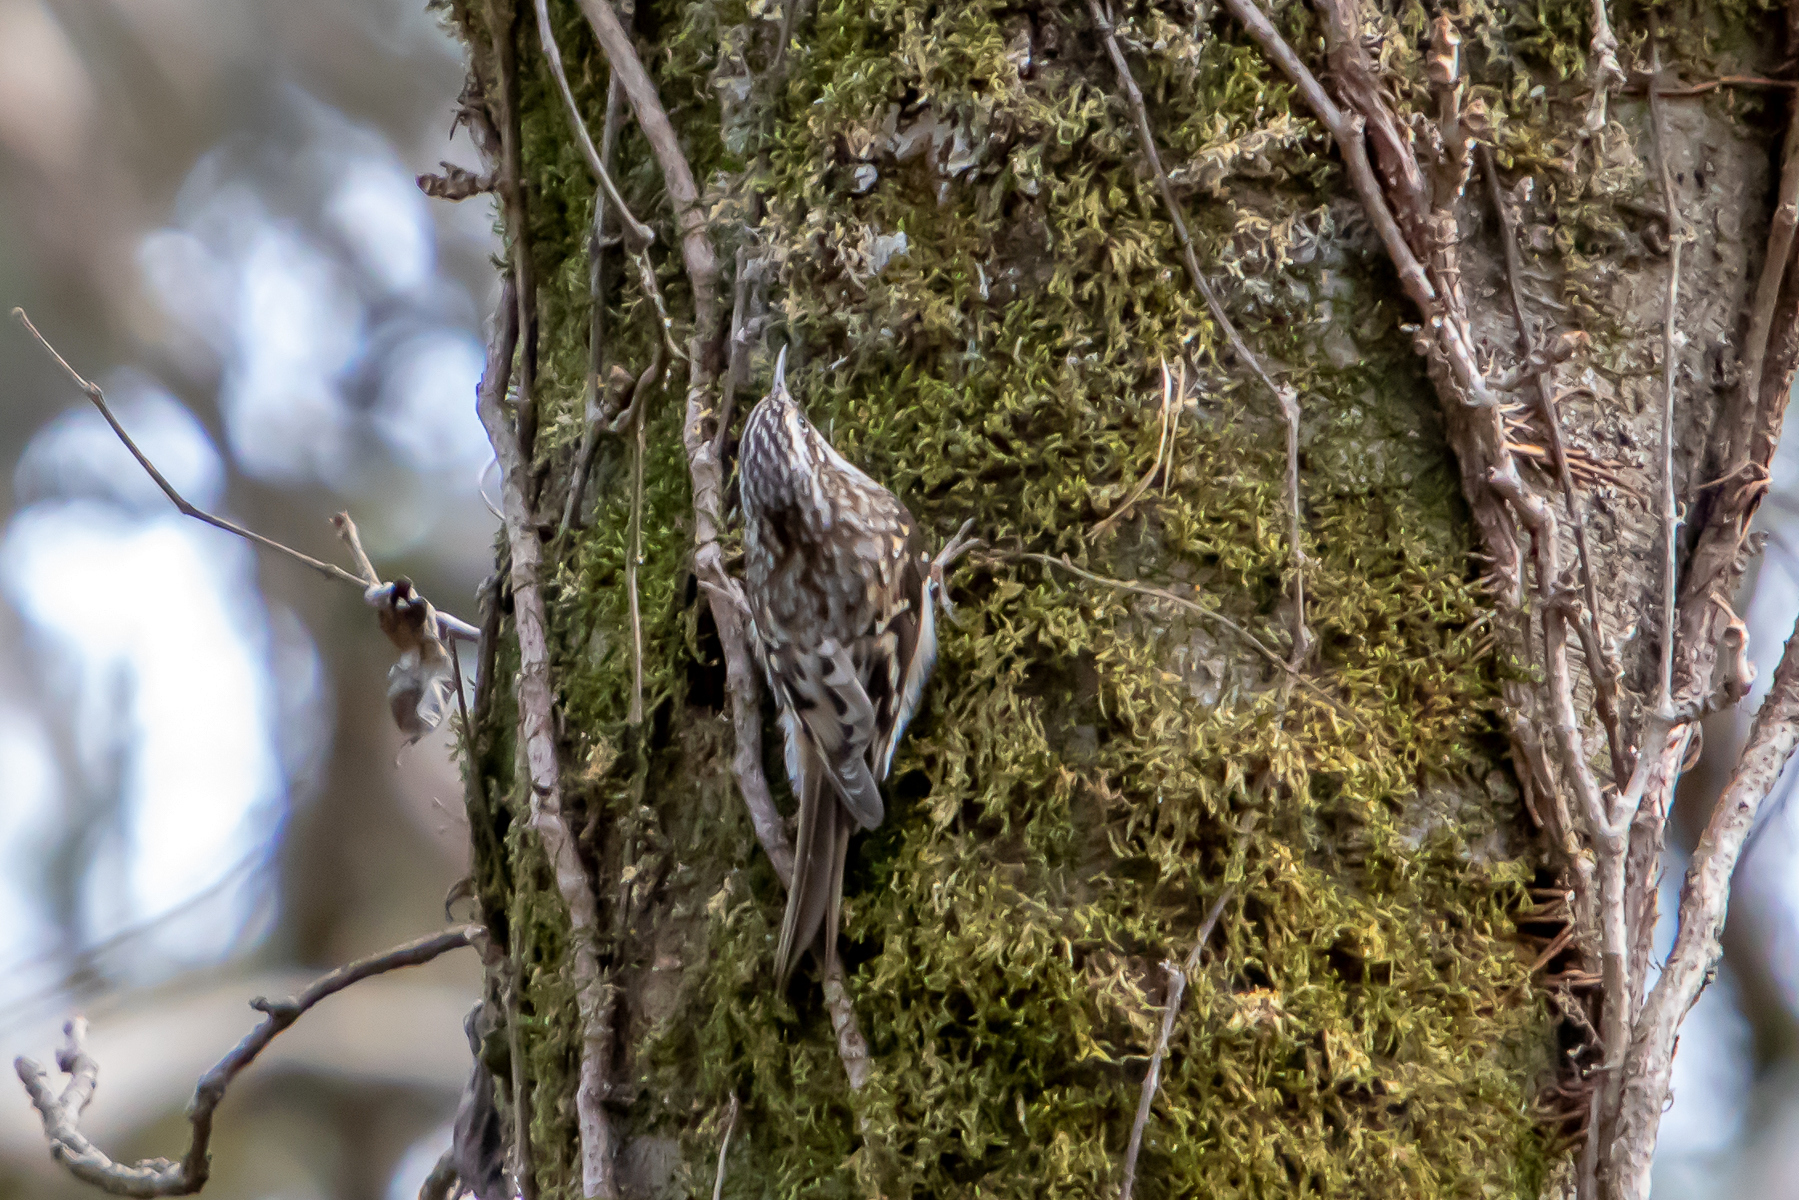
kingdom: Animalia
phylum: Chordata
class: Aves
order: Passeriformes
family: Certhiidae
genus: Certhia
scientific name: Certhia americana
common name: Brown creeper
